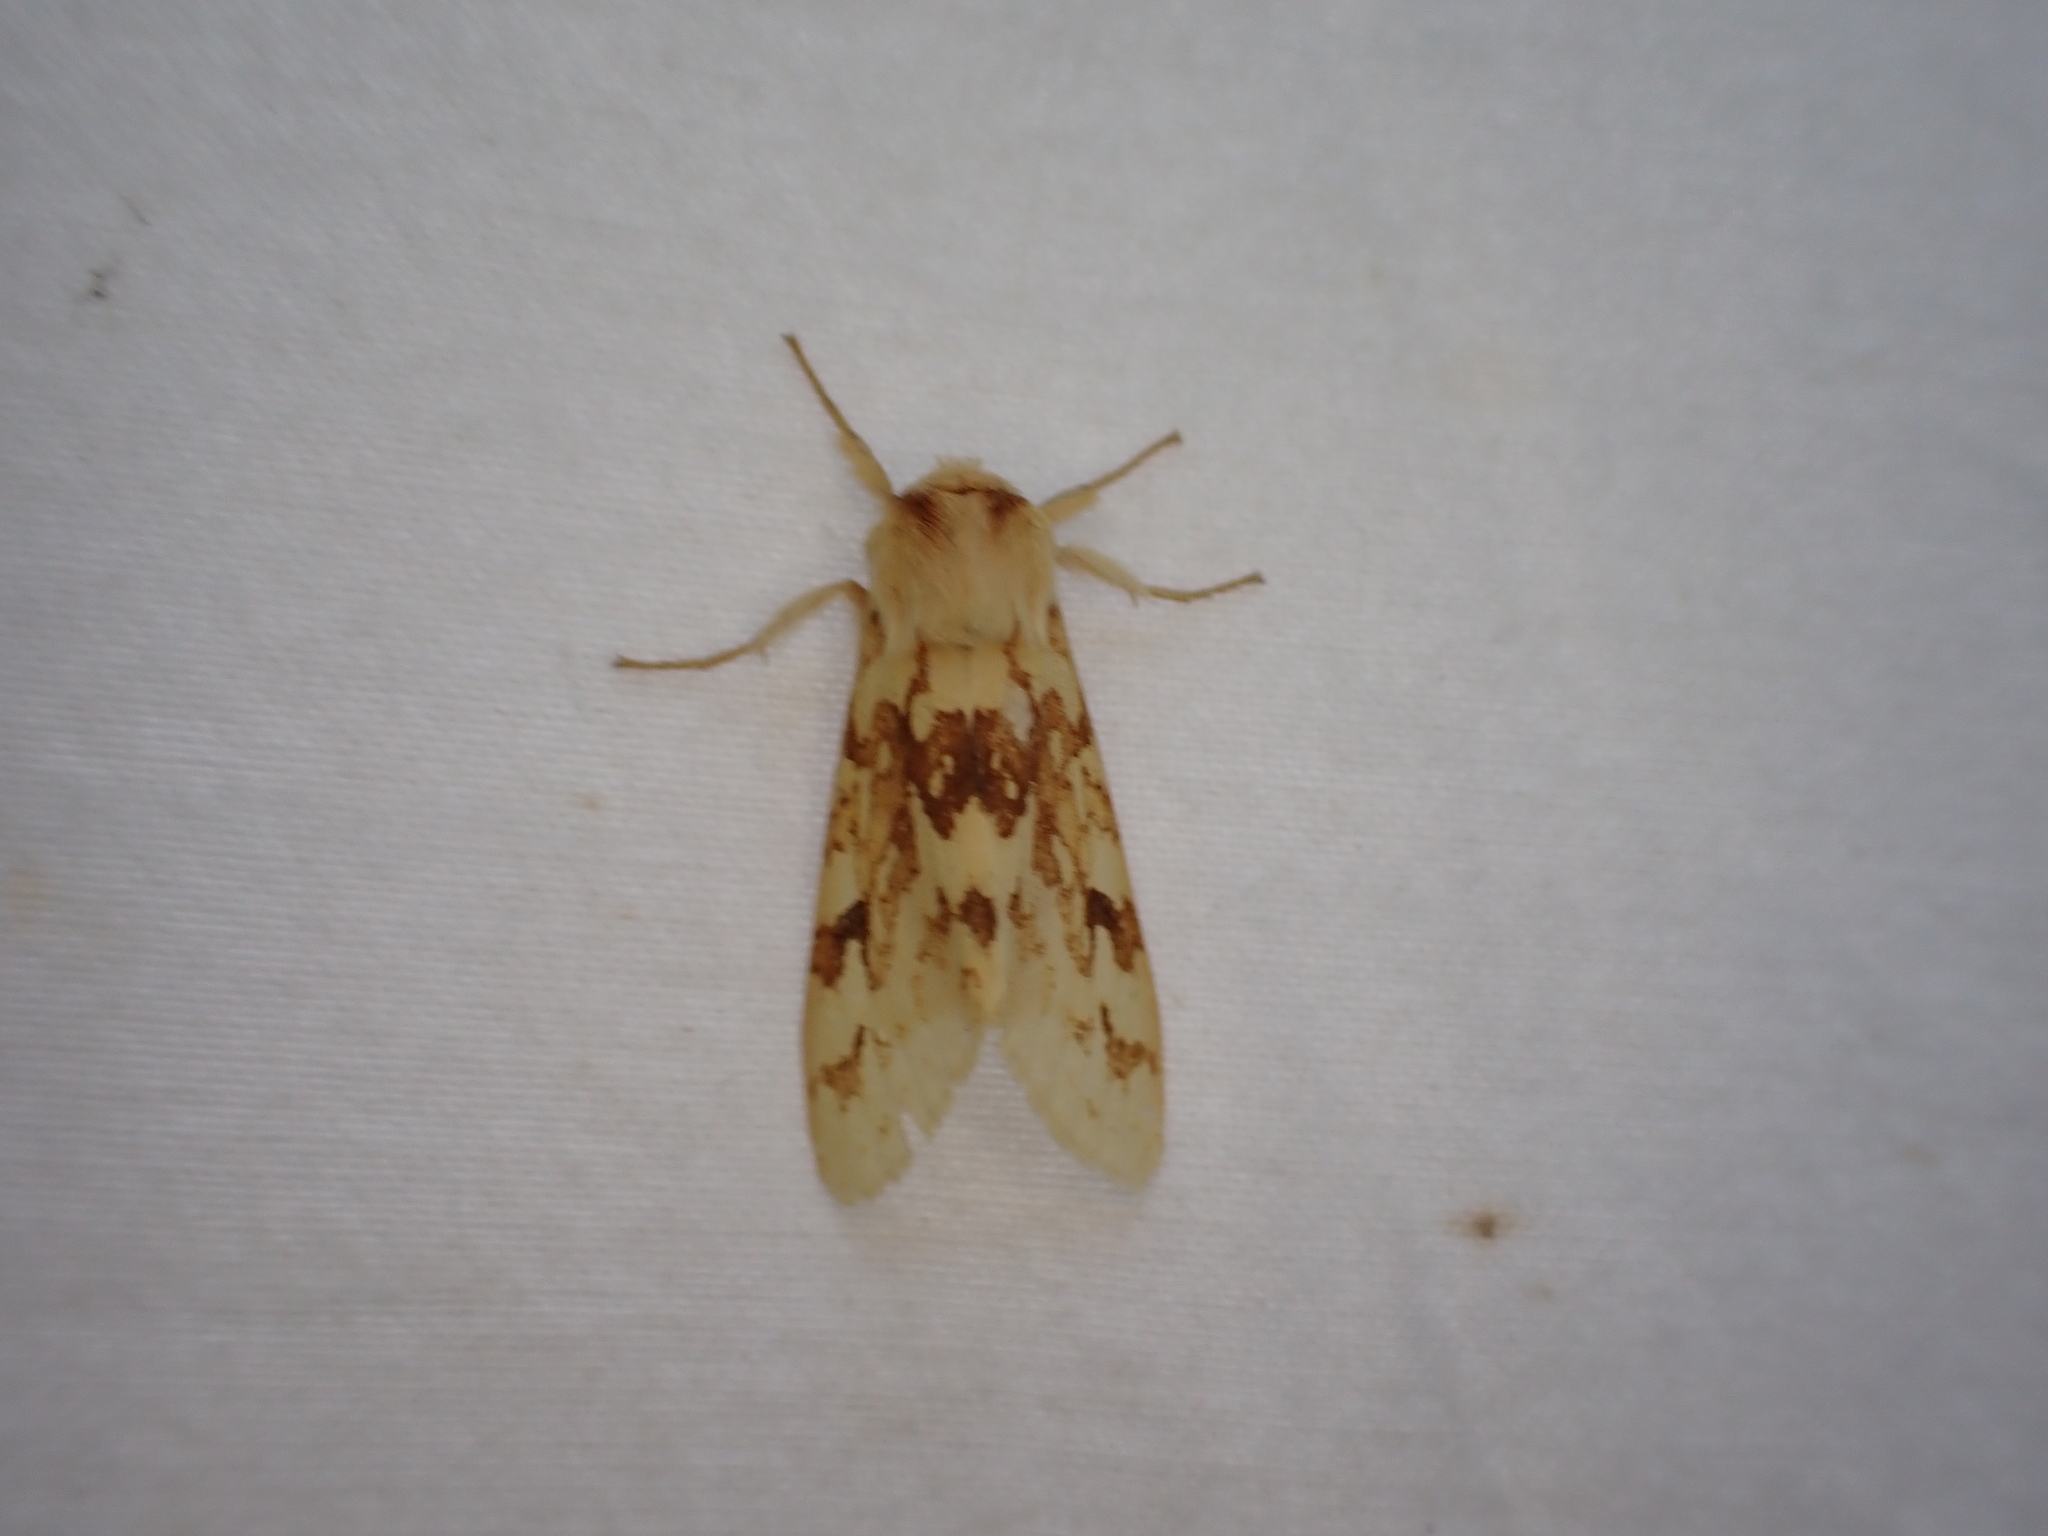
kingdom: Animalia
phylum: Arthropoda
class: Insecta
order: Lepidoptera
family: Erebidae
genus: Lophocampa
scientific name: Lophocampa maculata
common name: Spotted tussock moth
